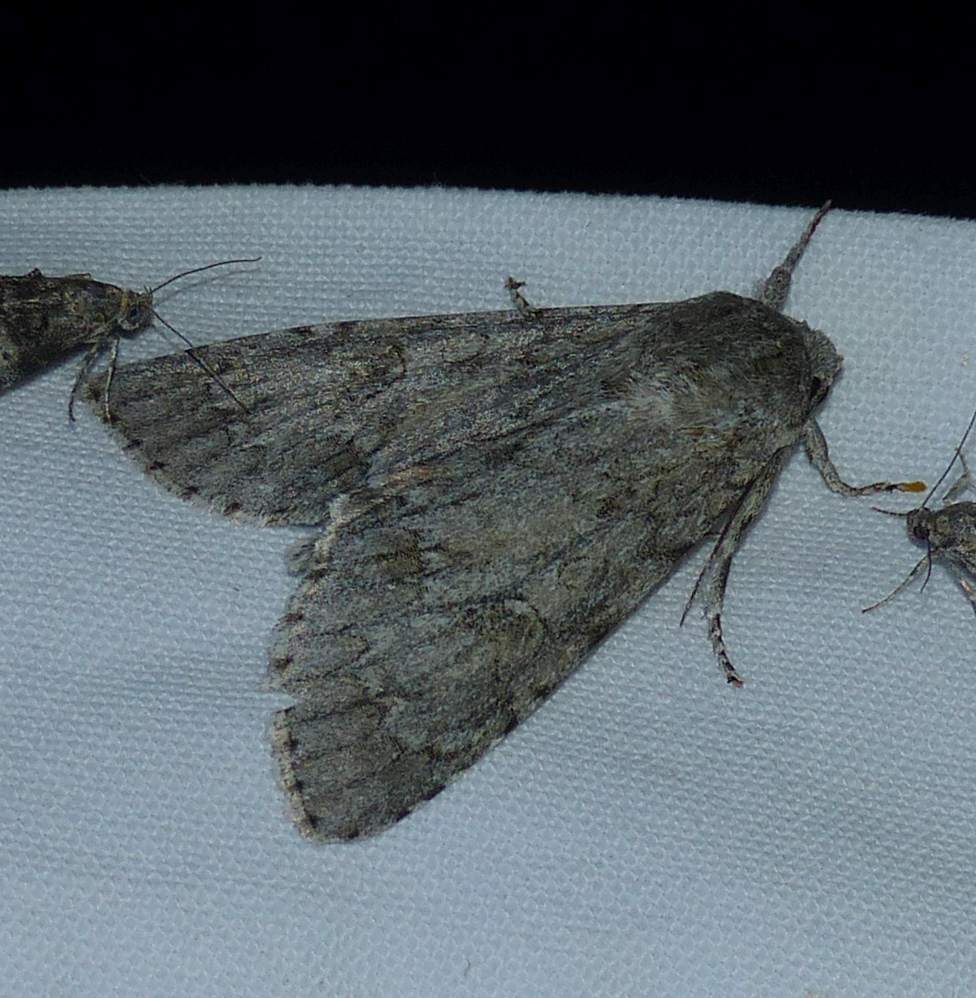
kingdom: Animalia
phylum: Arthropoda
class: Insecta
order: Lepidoptera
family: Noctuidae
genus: Acronicta
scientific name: Acronicta americana
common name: American dagger
